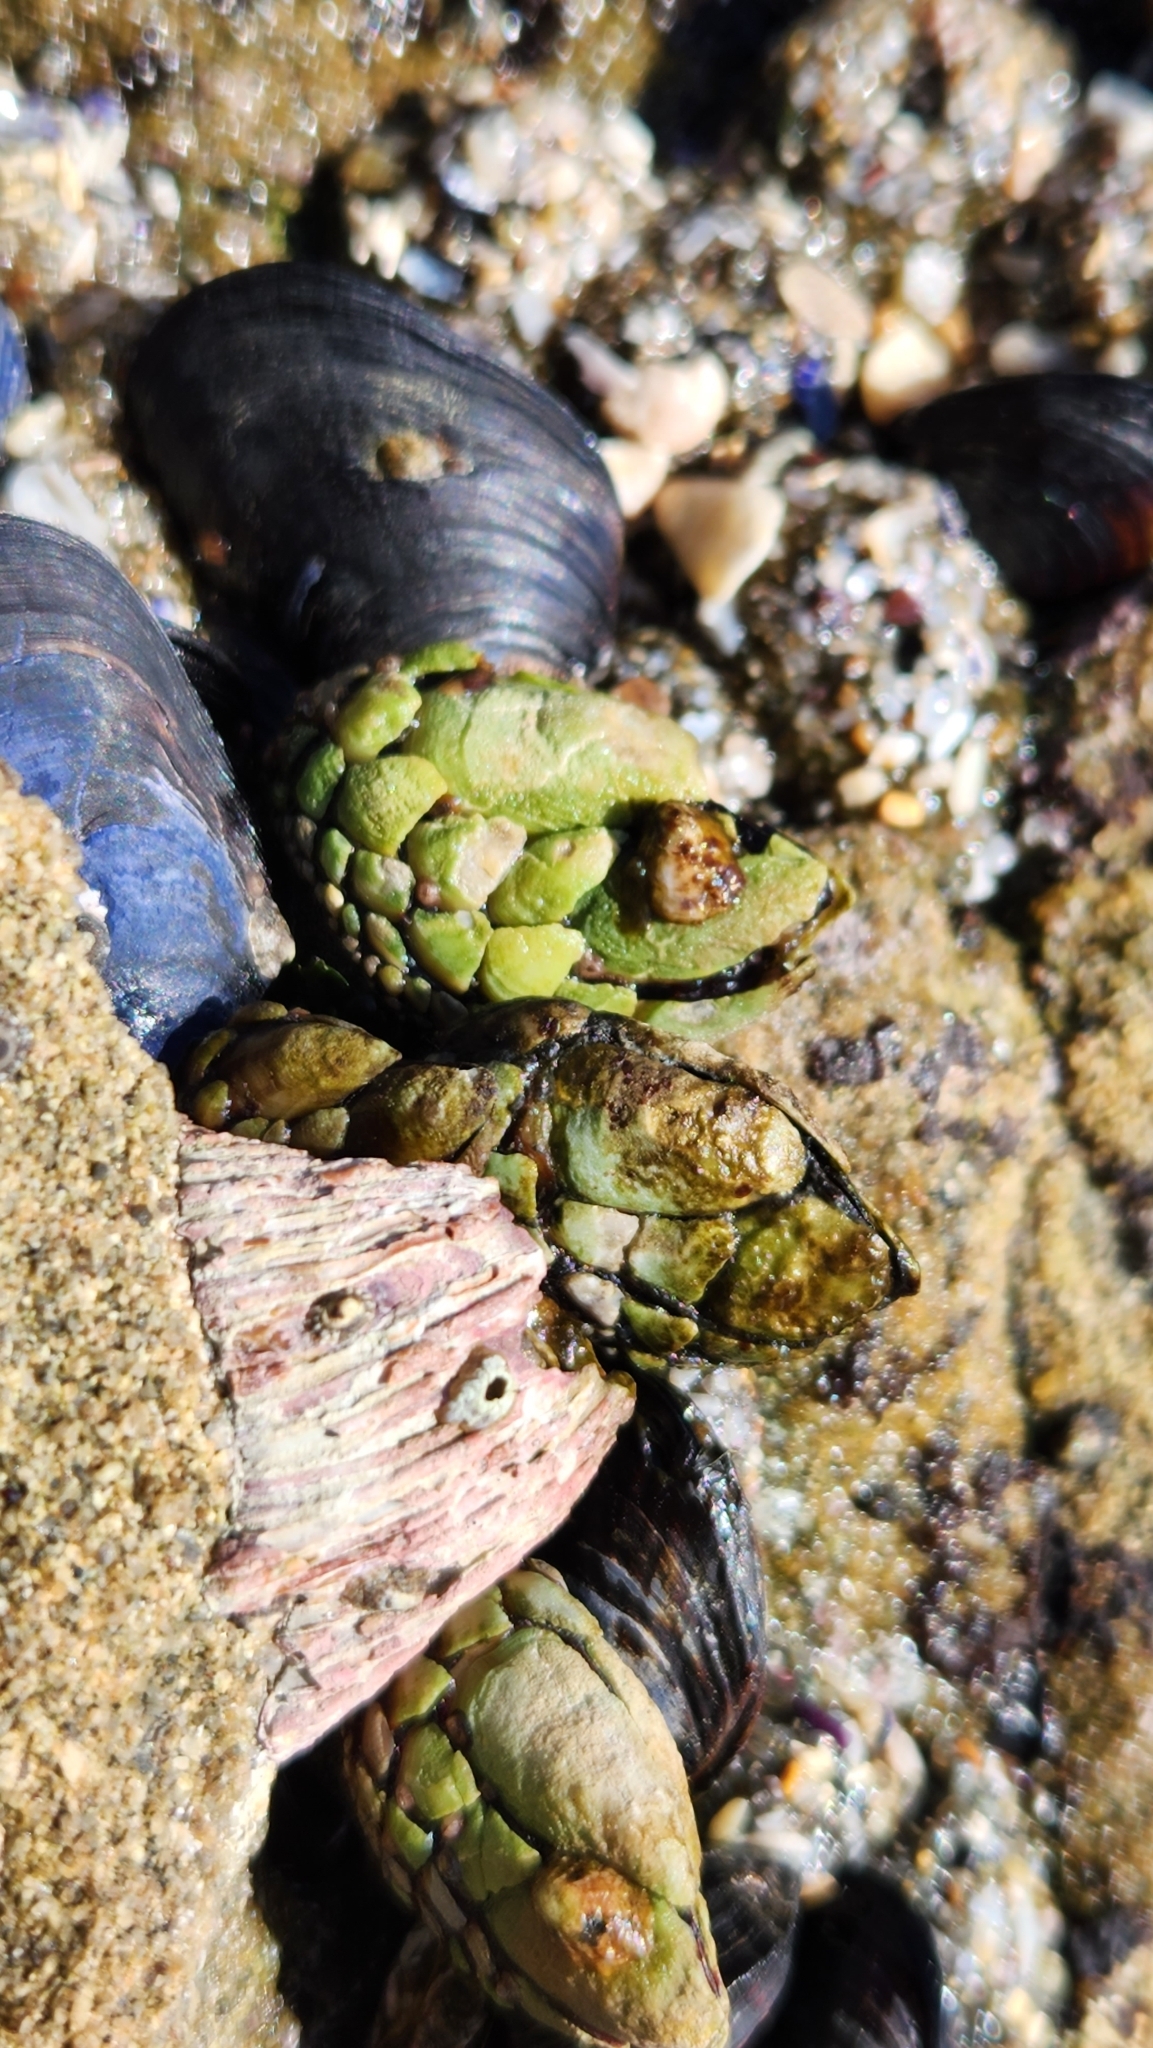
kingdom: Animalia
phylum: Arthropoda
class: Maxillopoda
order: Pedunculata
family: Pollicipedidae
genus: Pollicipes
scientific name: Pollicipes polymerus
